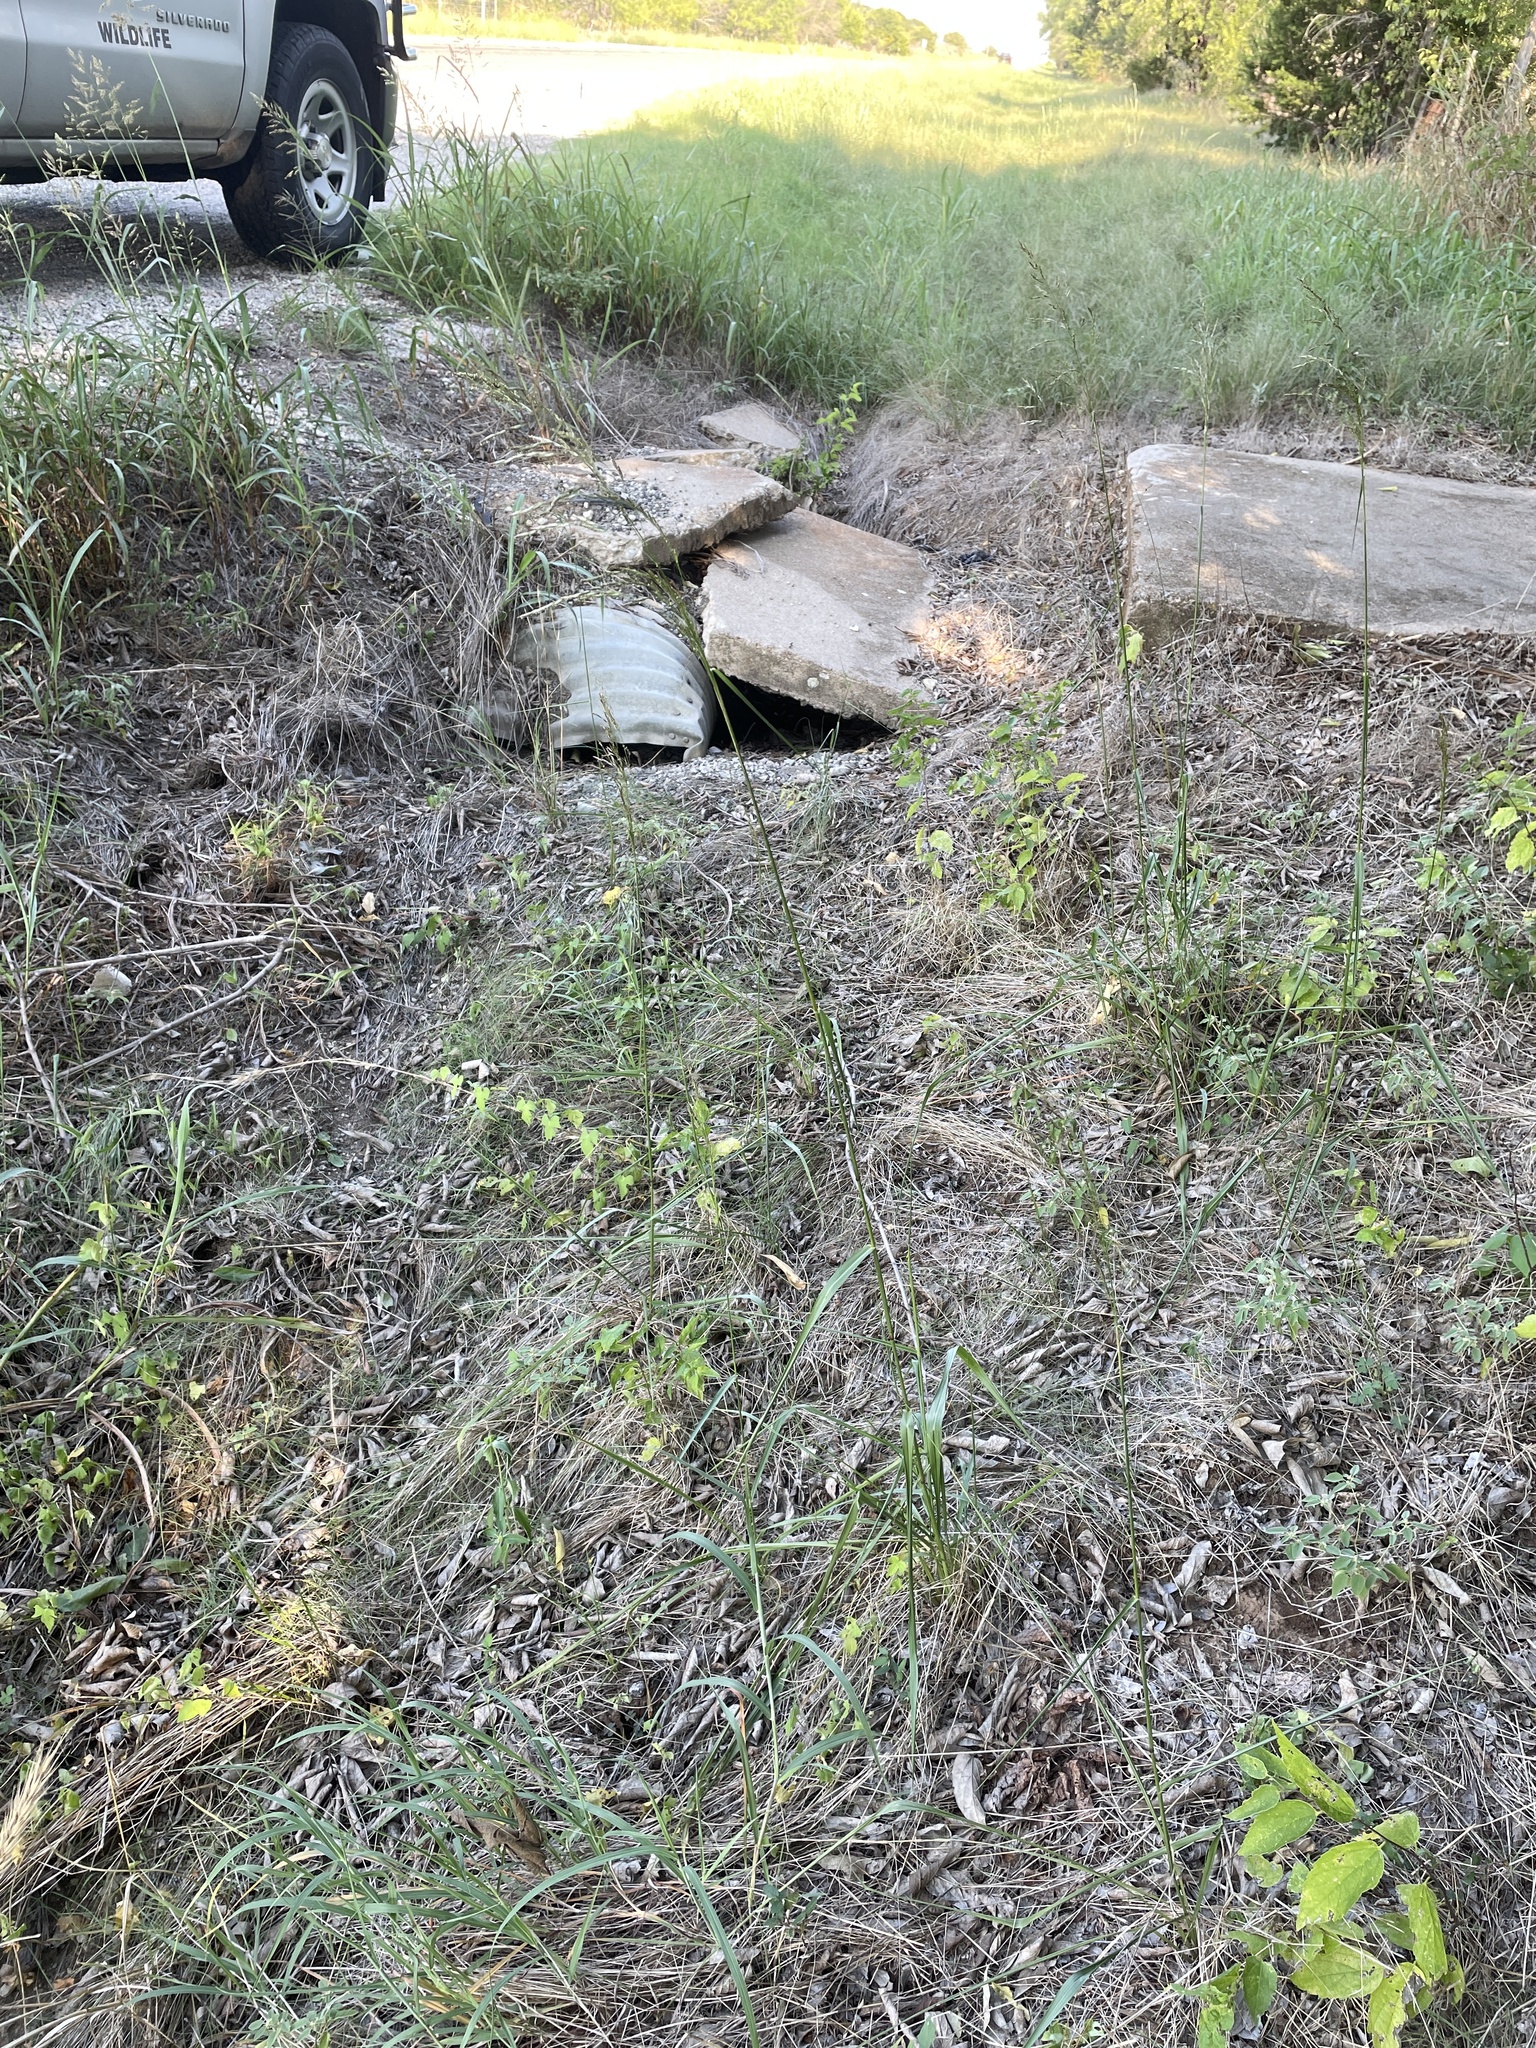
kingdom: Plantae
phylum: Tracheophyta
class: Liliopsida
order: Poales
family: Poaceae
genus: Tridens
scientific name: Tridens flavus
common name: Purpletop
